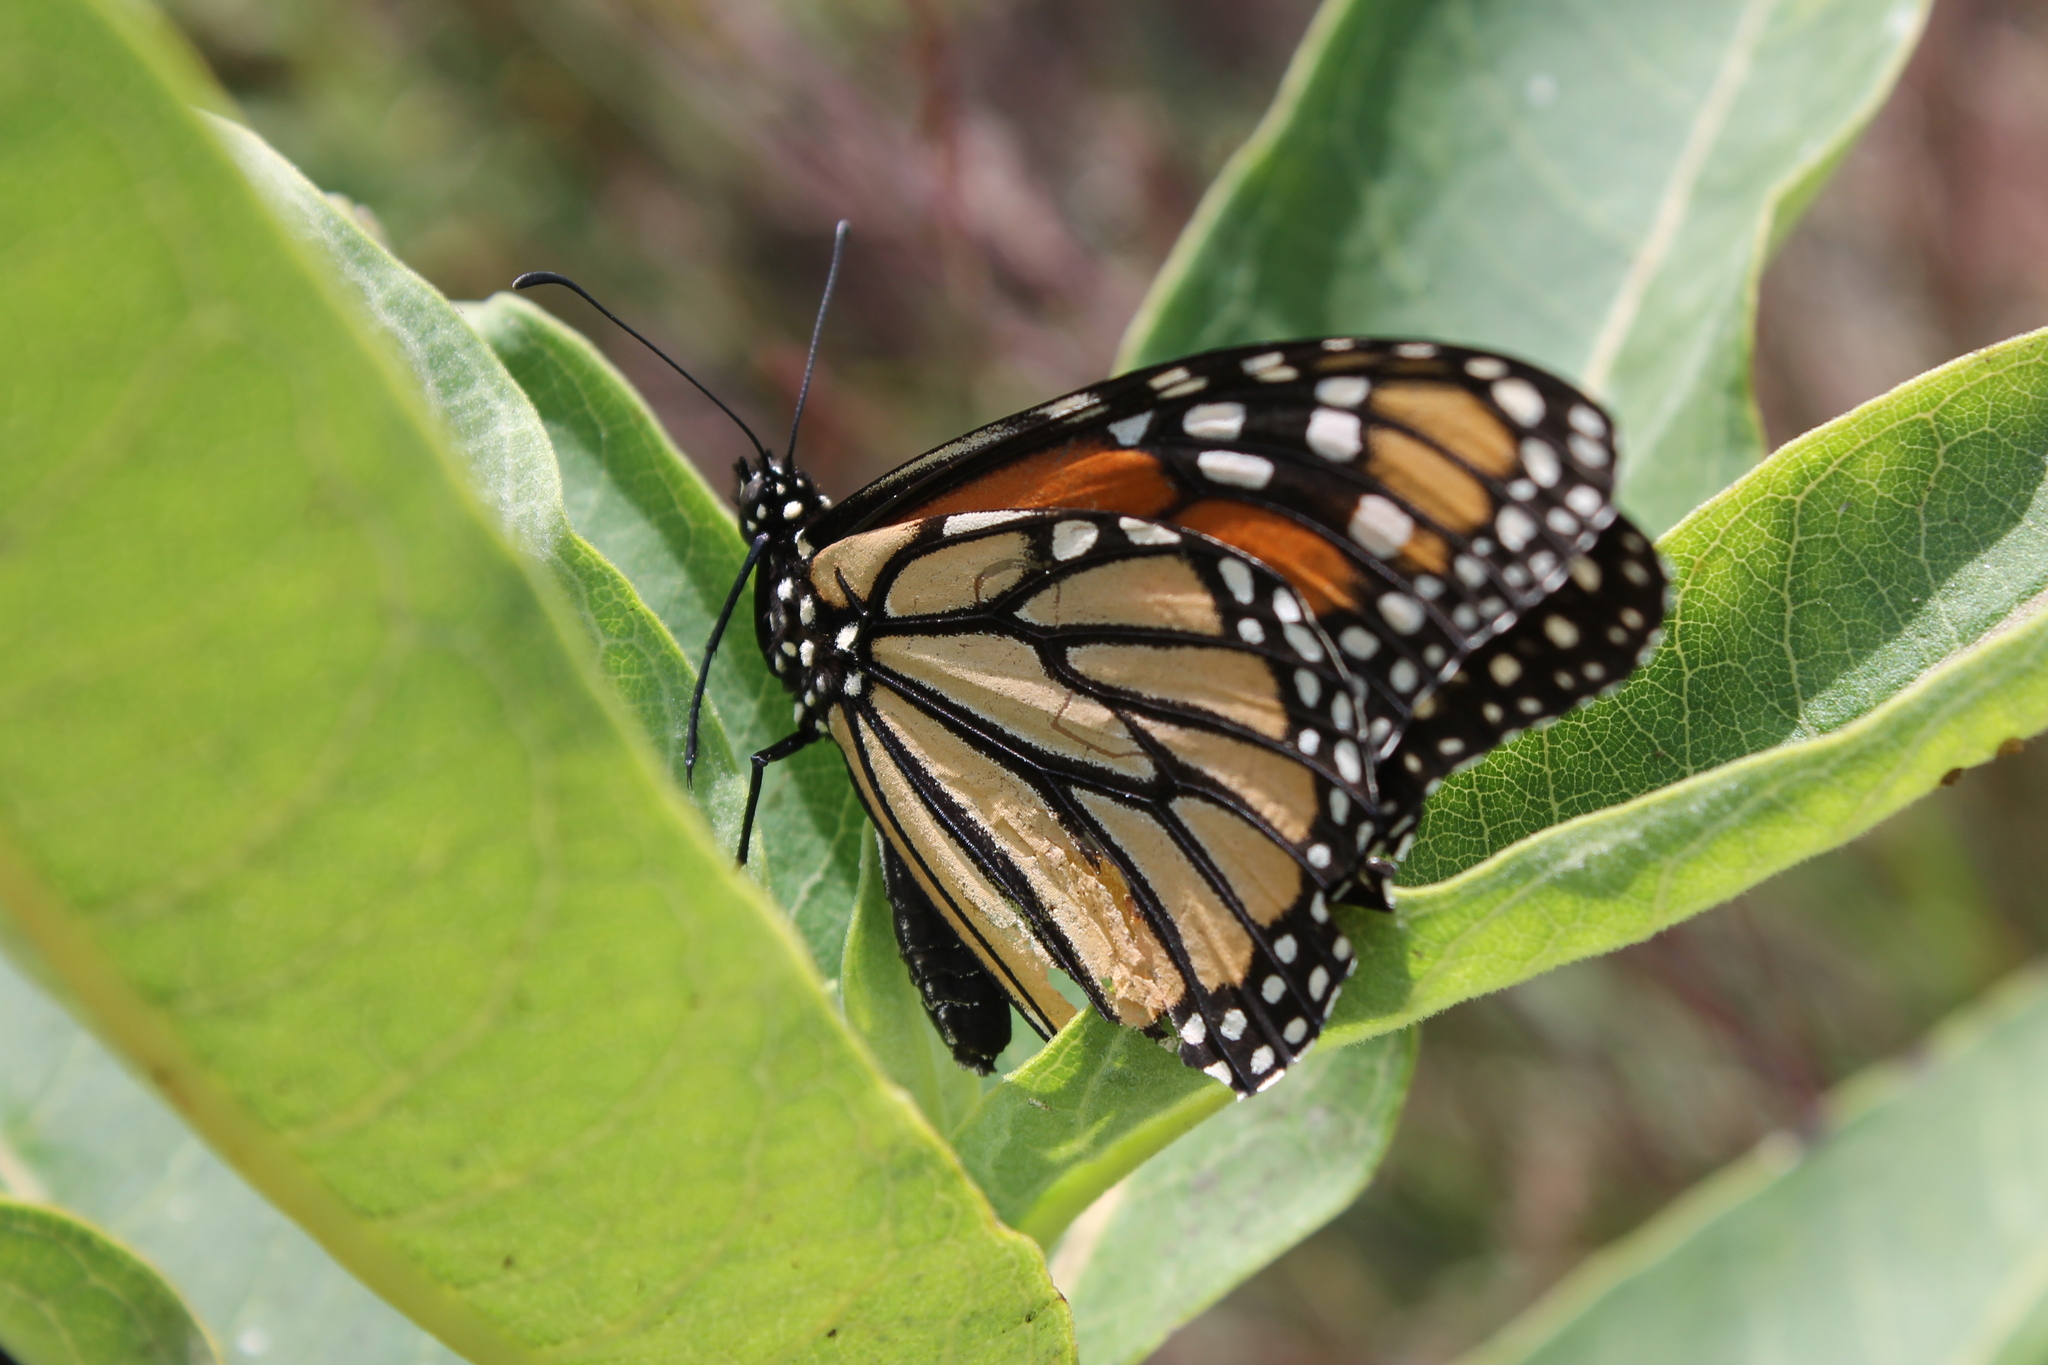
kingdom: Animalia
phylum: Arthropoda
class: Insecta
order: Lepidoptera
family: Nymphalidae
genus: Danaus
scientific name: Danaus plexippus
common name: Monarch
